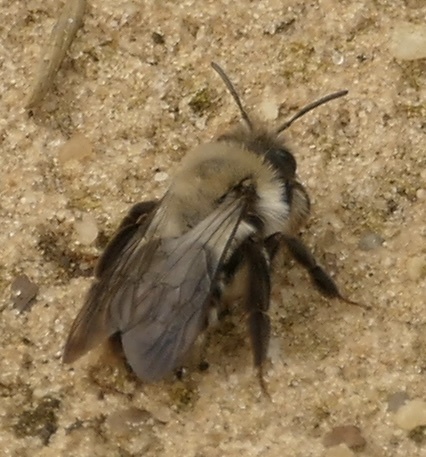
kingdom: Animalia
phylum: Arthropoda
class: Insecta
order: Hymenoptera
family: Andrenidae
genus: Andrena
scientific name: Andrena vaga
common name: Grey-backed mining bee
